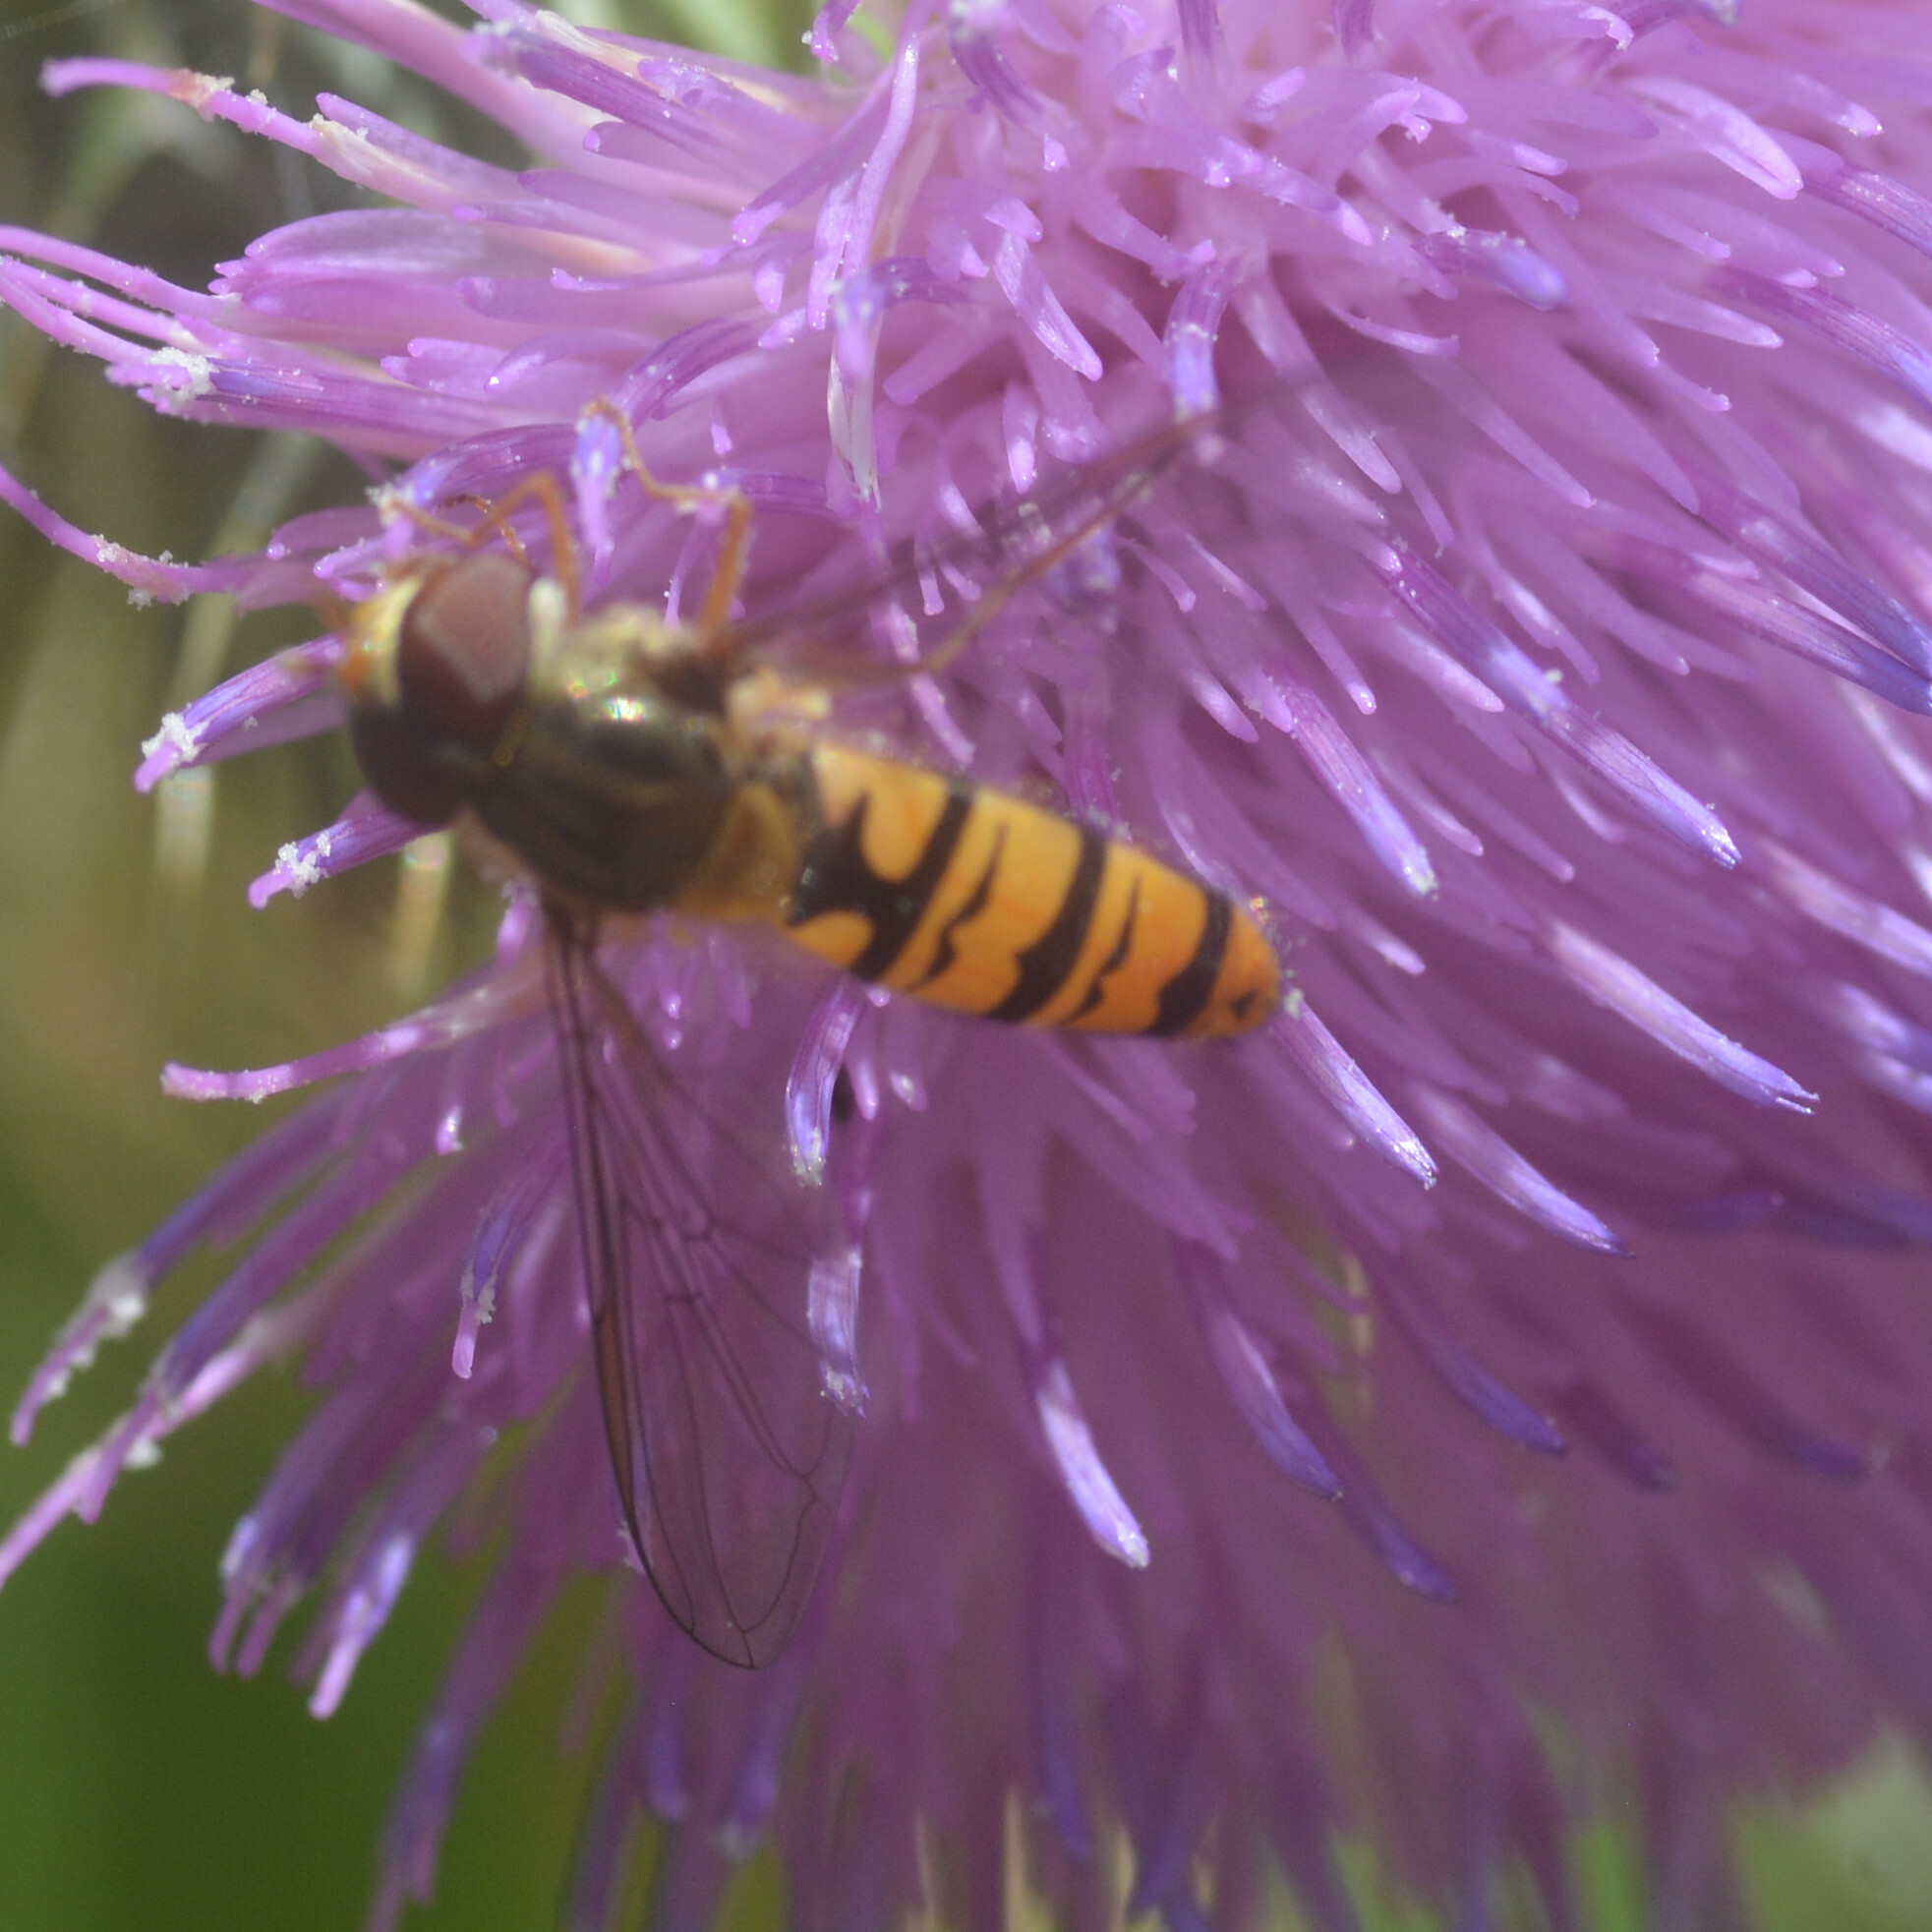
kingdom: Animalia
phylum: Arthropoda
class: Insecta
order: Diptera
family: Syrphidae
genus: Episyrphus
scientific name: Episyrphus balteatus
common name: Marmalade hoverfly
